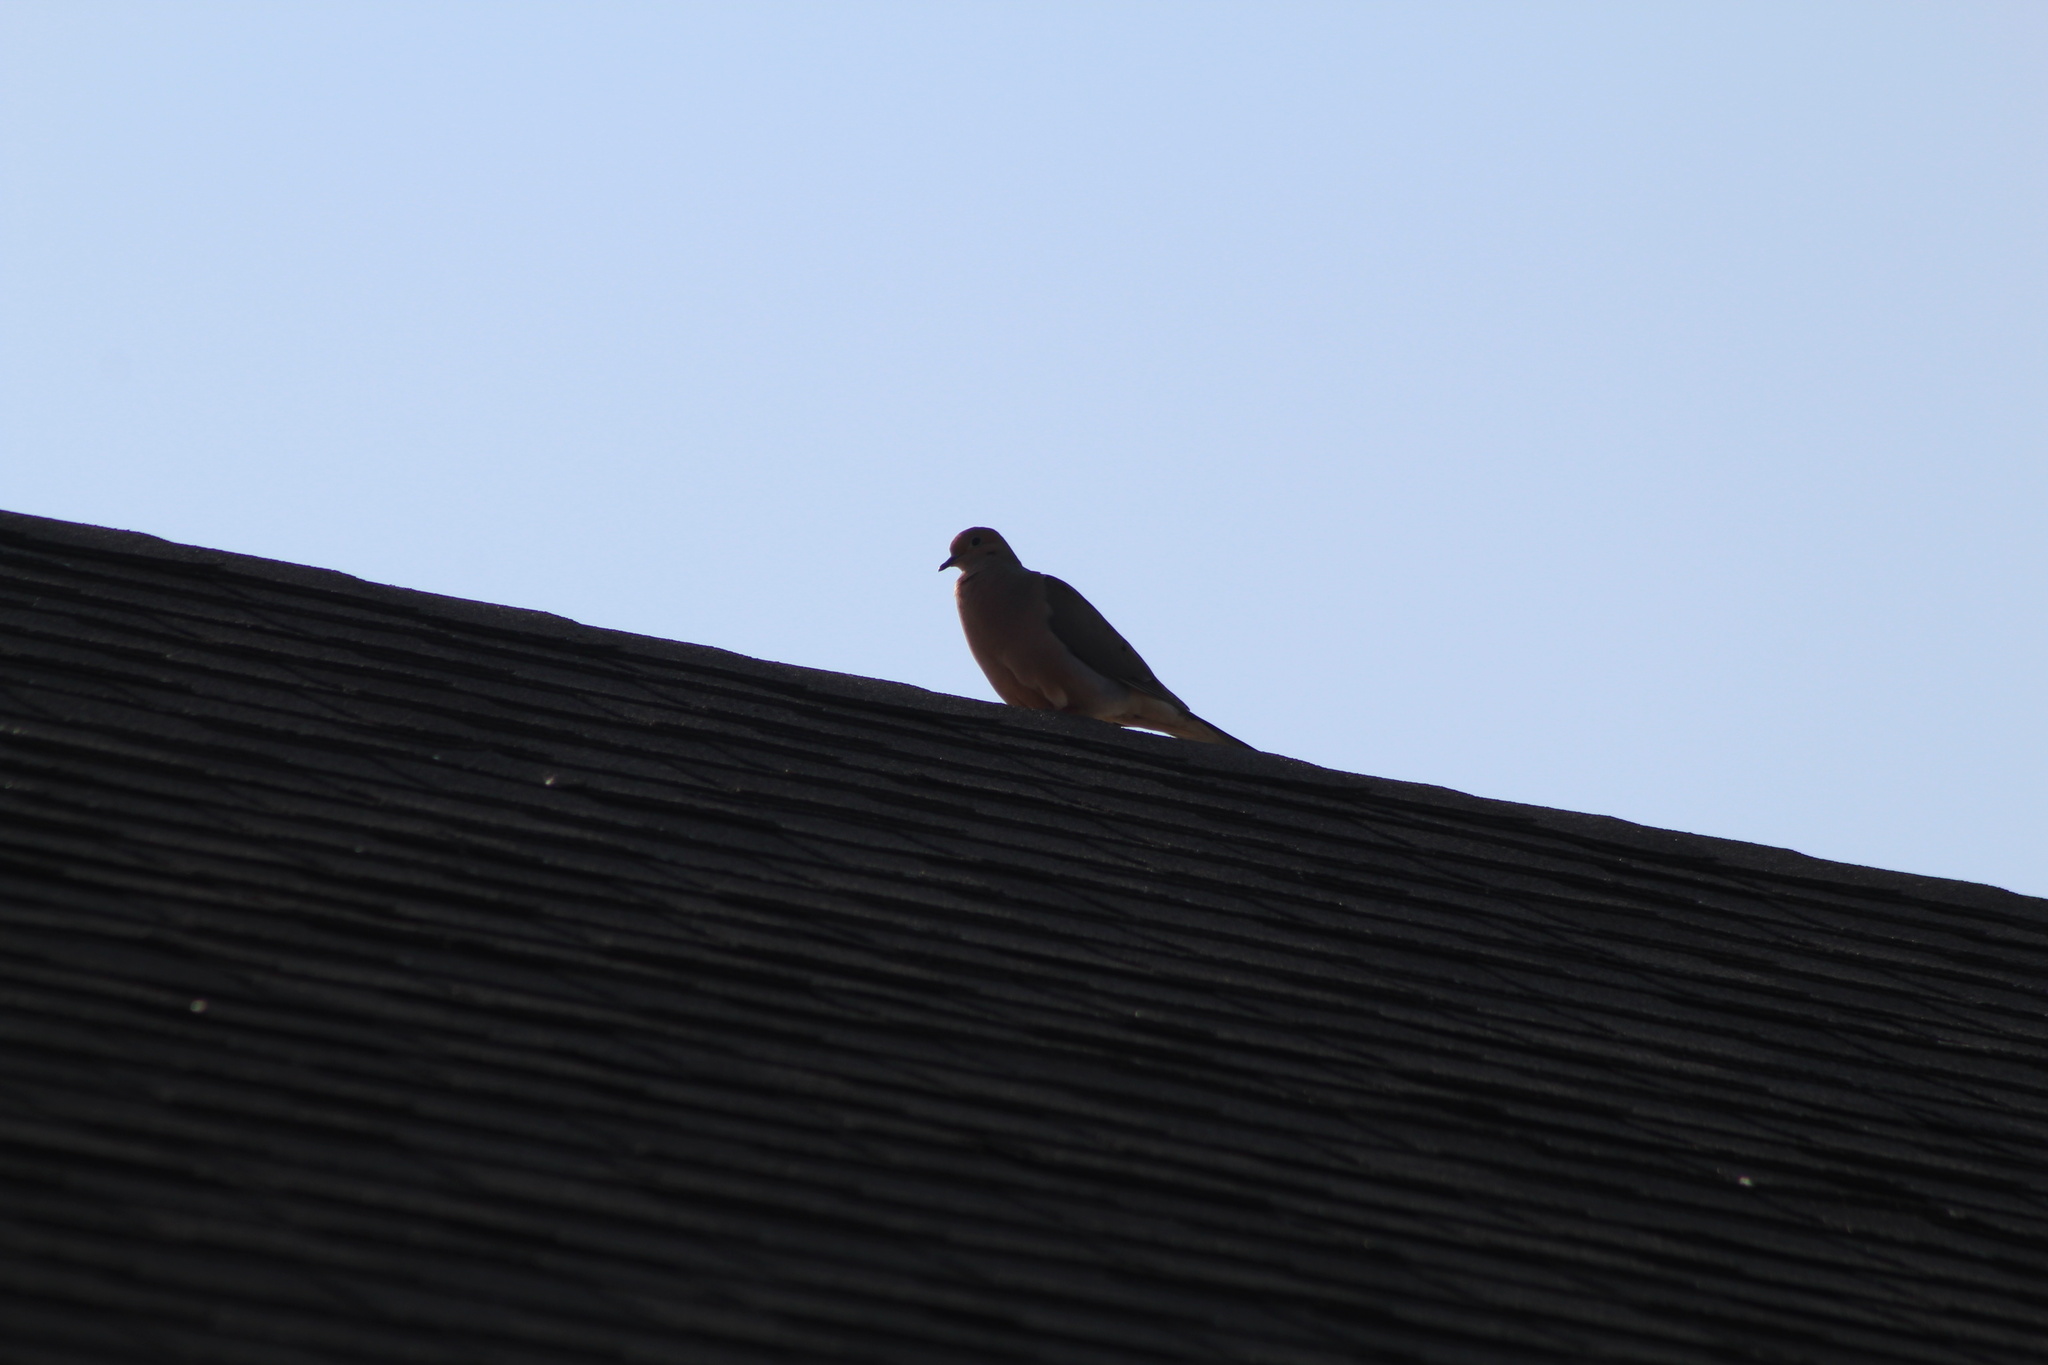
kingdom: Animalia
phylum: Chordata
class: Aves
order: Columbiformes
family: Columbidae
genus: Zenaida
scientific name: Zenaida macroura
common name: Mourning dove
